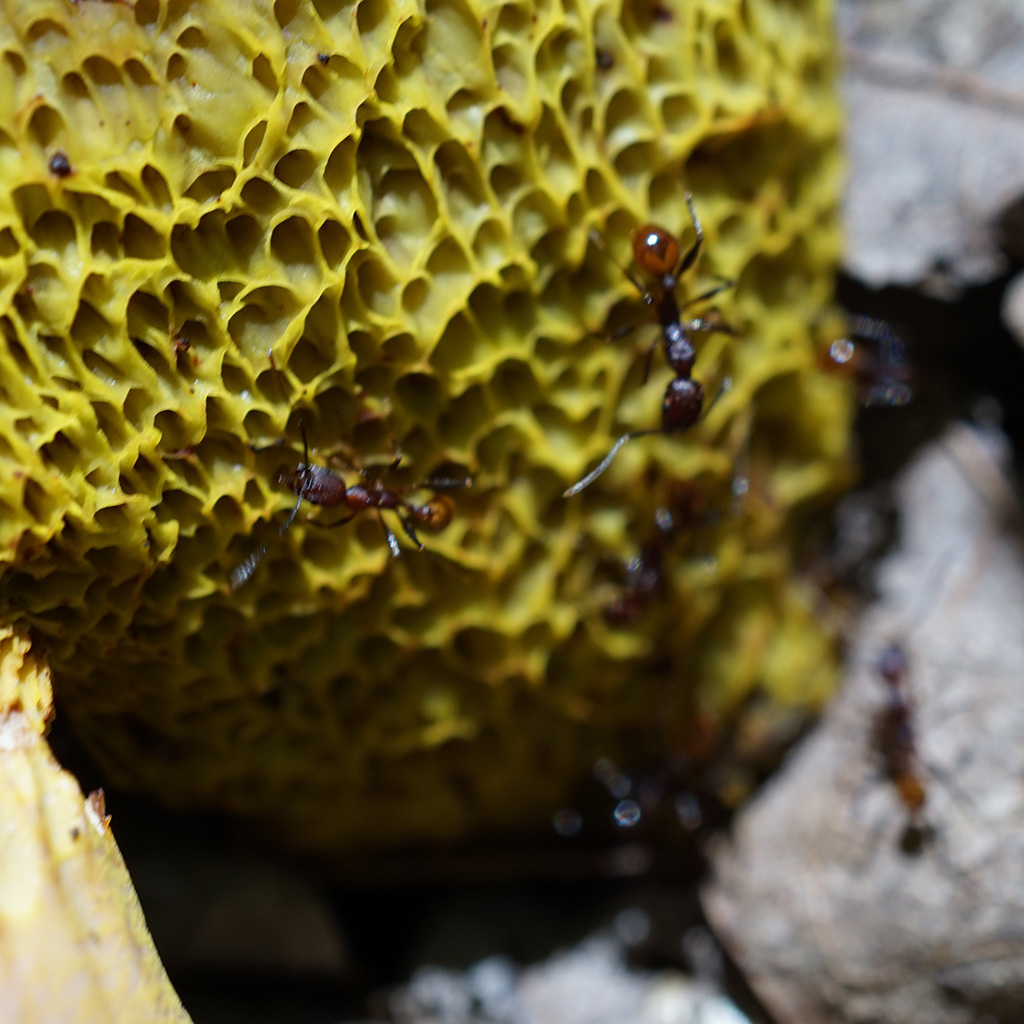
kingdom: Animalia
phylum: Arthropoda
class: Insecta
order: Hymenoptera
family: Formicidae
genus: Aphaenogaster
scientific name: Aphaenogaster lamellidens
